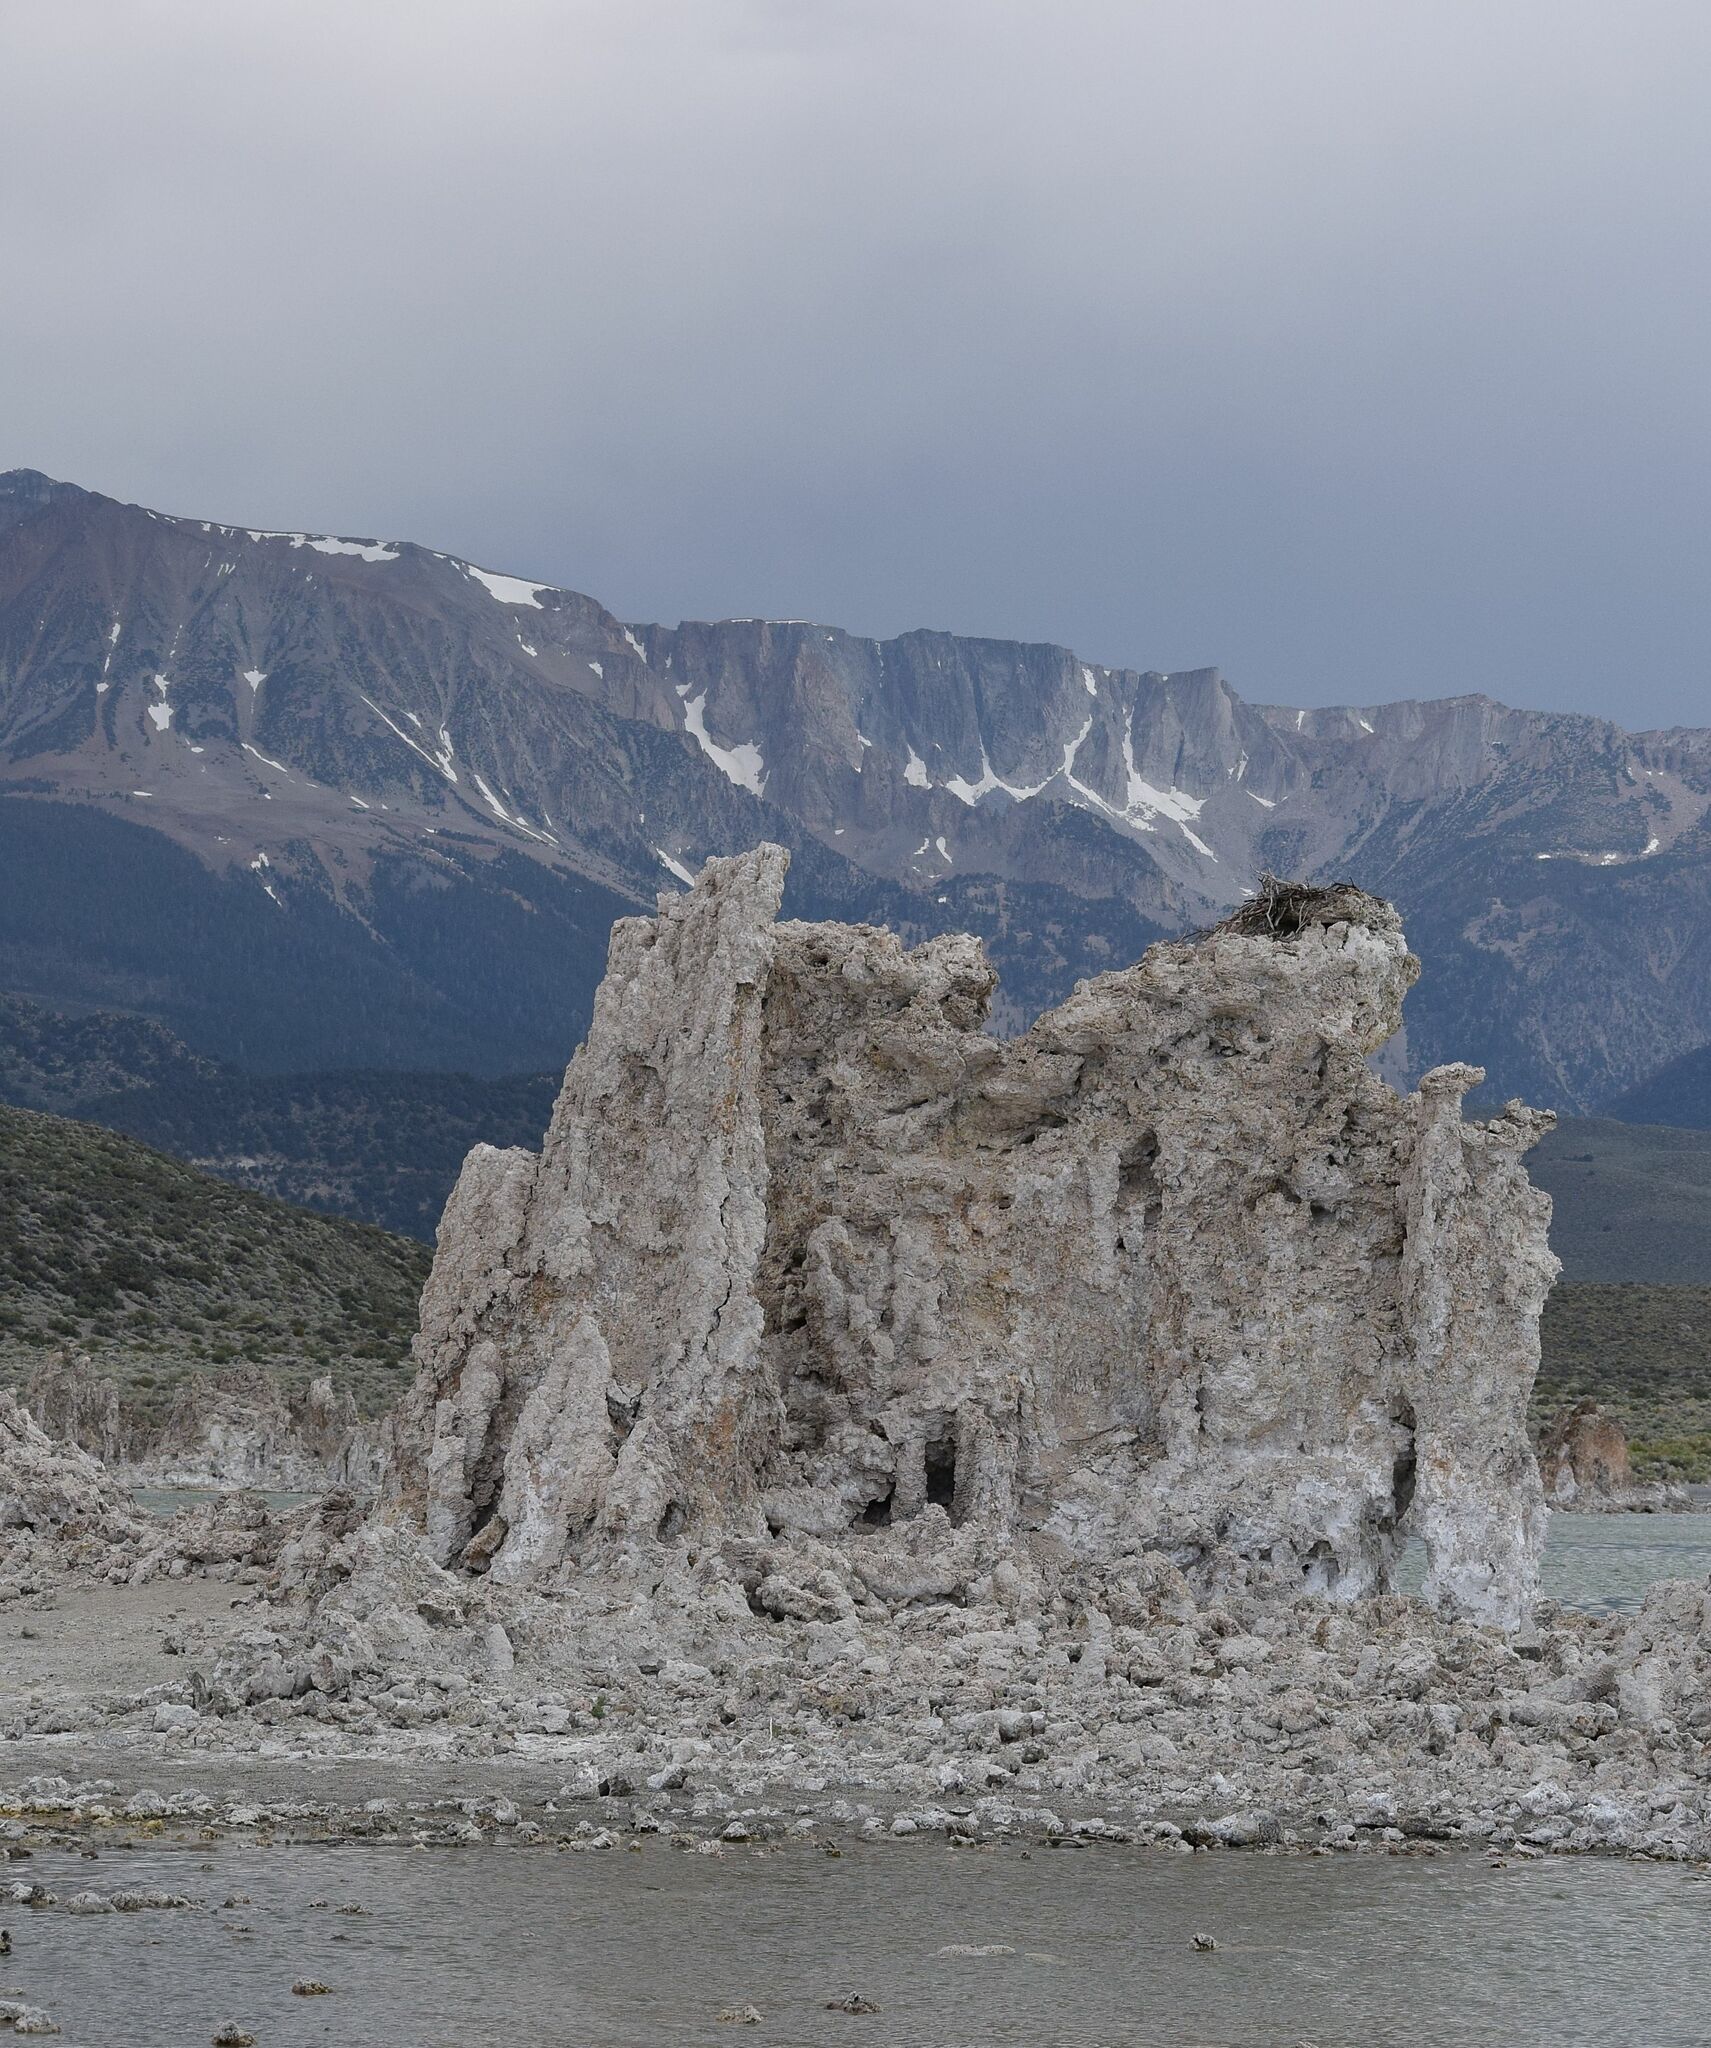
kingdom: Animalia
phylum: Chordata
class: Aves
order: Accipitriformes
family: Pandionidae
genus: Pandion
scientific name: Pandion haliaetus
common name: Osprey
